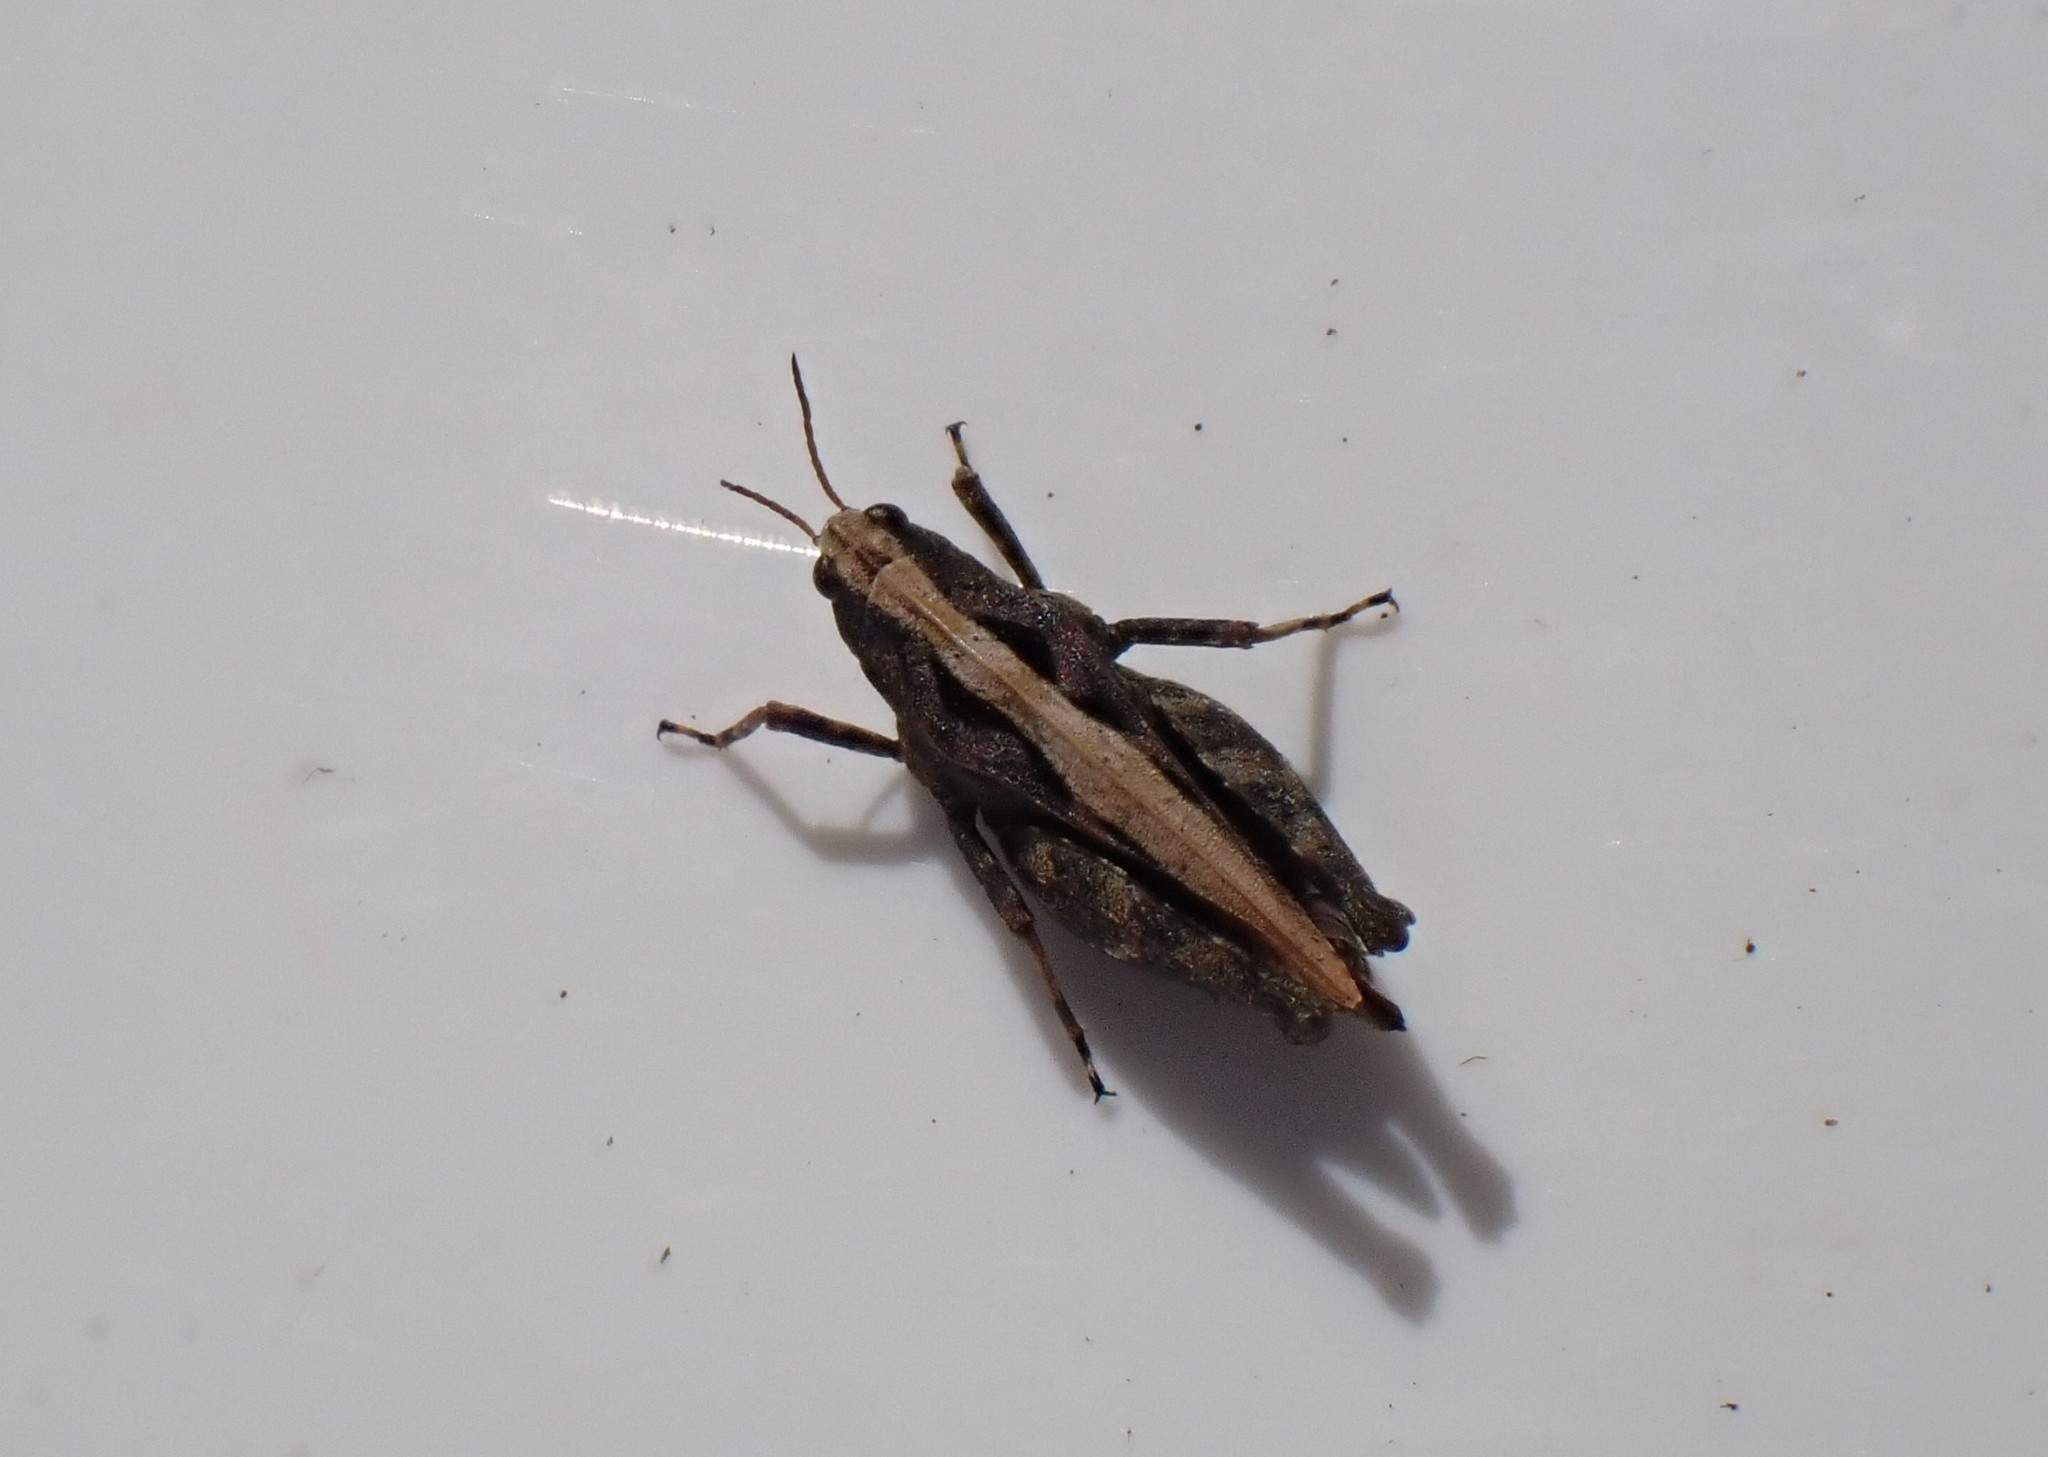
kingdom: Animalia
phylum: Arthropoda
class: Insecta
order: Orthoptera
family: Tetrigidae
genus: Tetrix
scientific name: Tetrix undulata
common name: Common groundhopper
